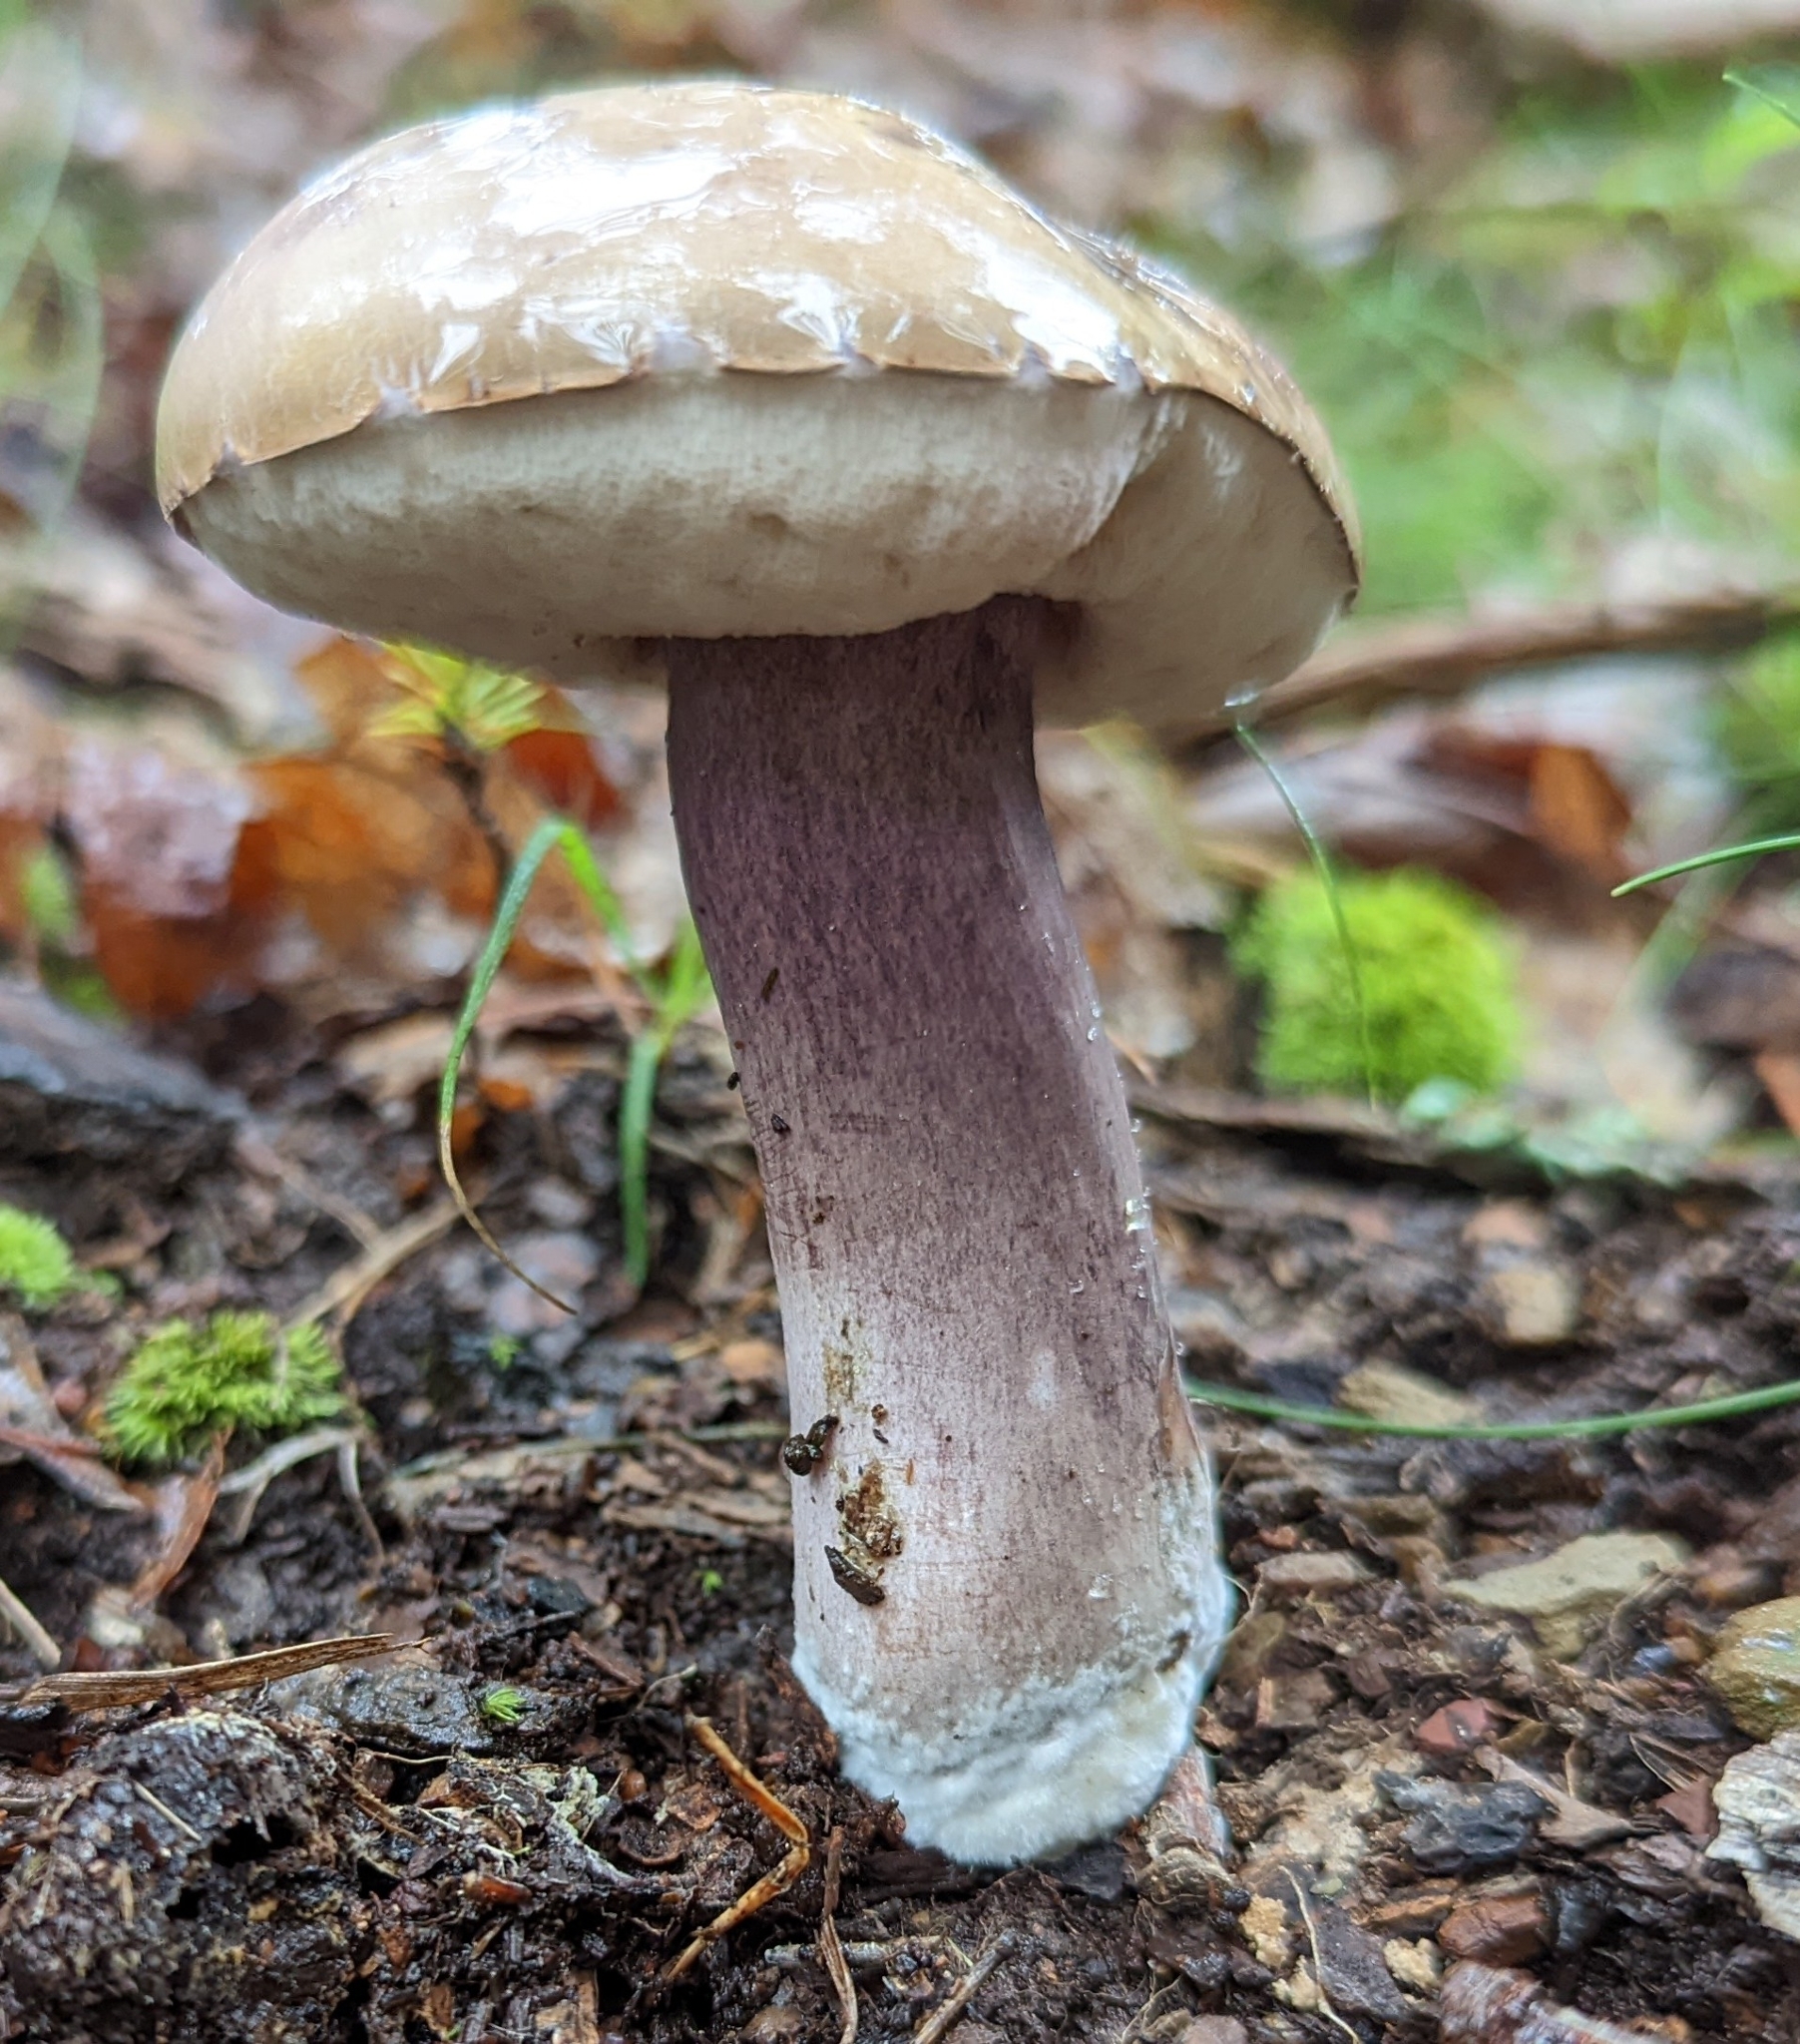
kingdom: Fungi
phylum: Basidiomycota
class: Agaricomycetes
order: Boletales
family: Boletaceae
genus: Tylopilus
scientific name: Tylopilus plumbeoviolaceus
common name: Violet gray bolete
